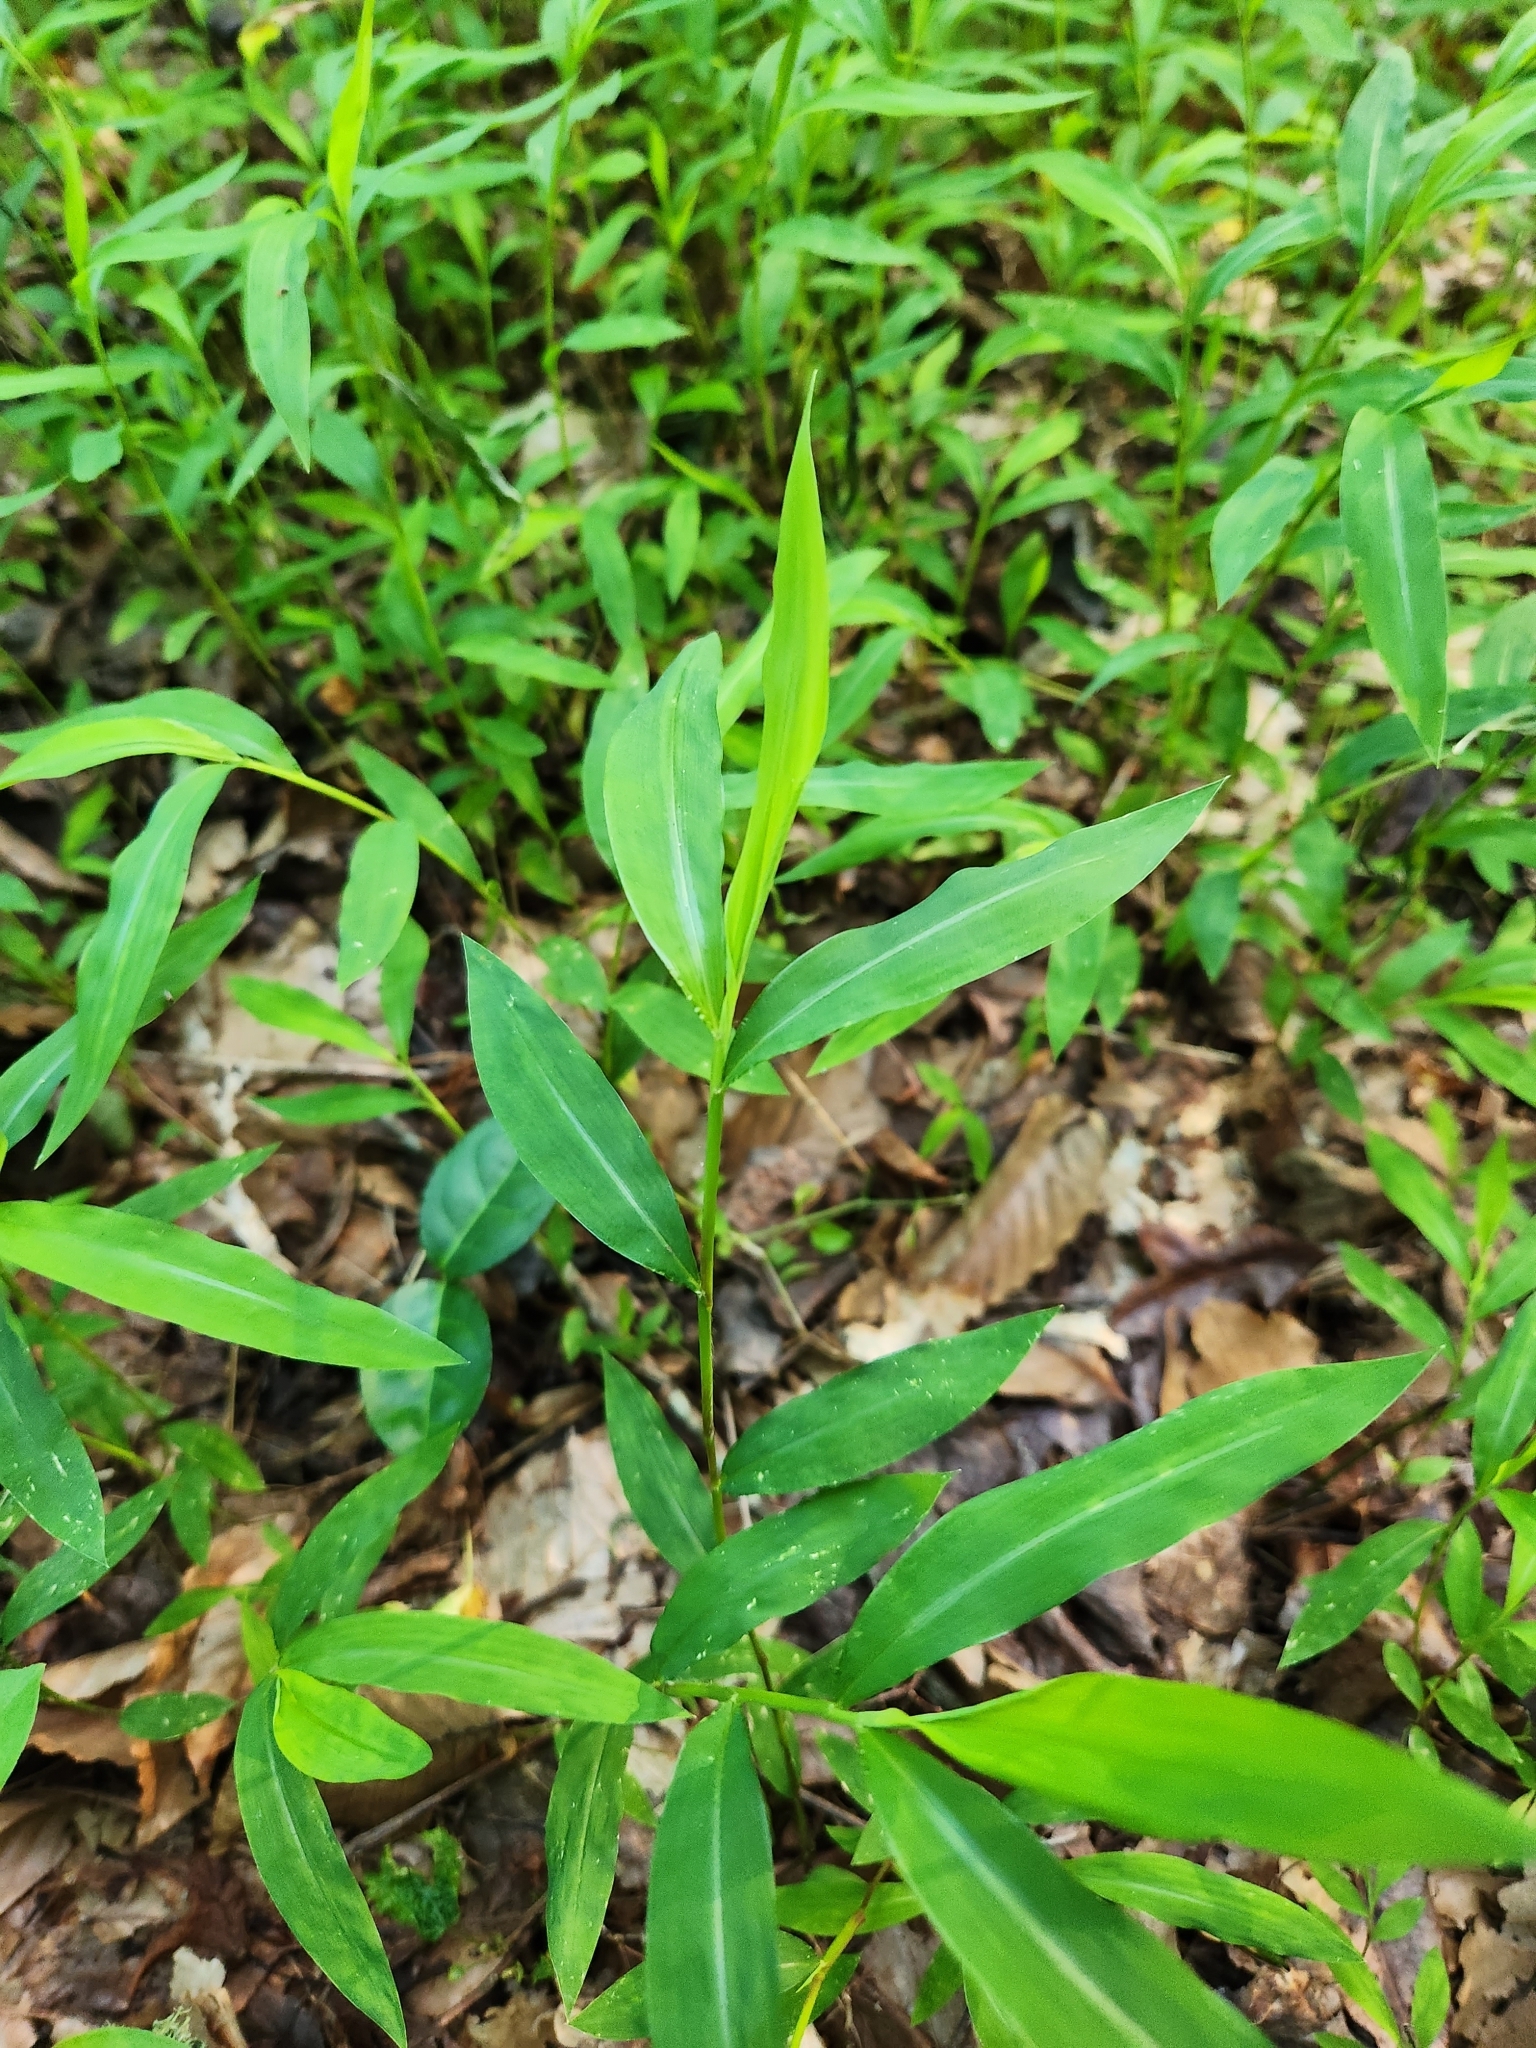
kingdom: Plantae
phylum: Tracheophyta
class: Liliopsida
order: Poales
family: Poaceae
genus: Microstegium
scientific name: Microstegium vimineum
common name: Japanese stiltgrass
